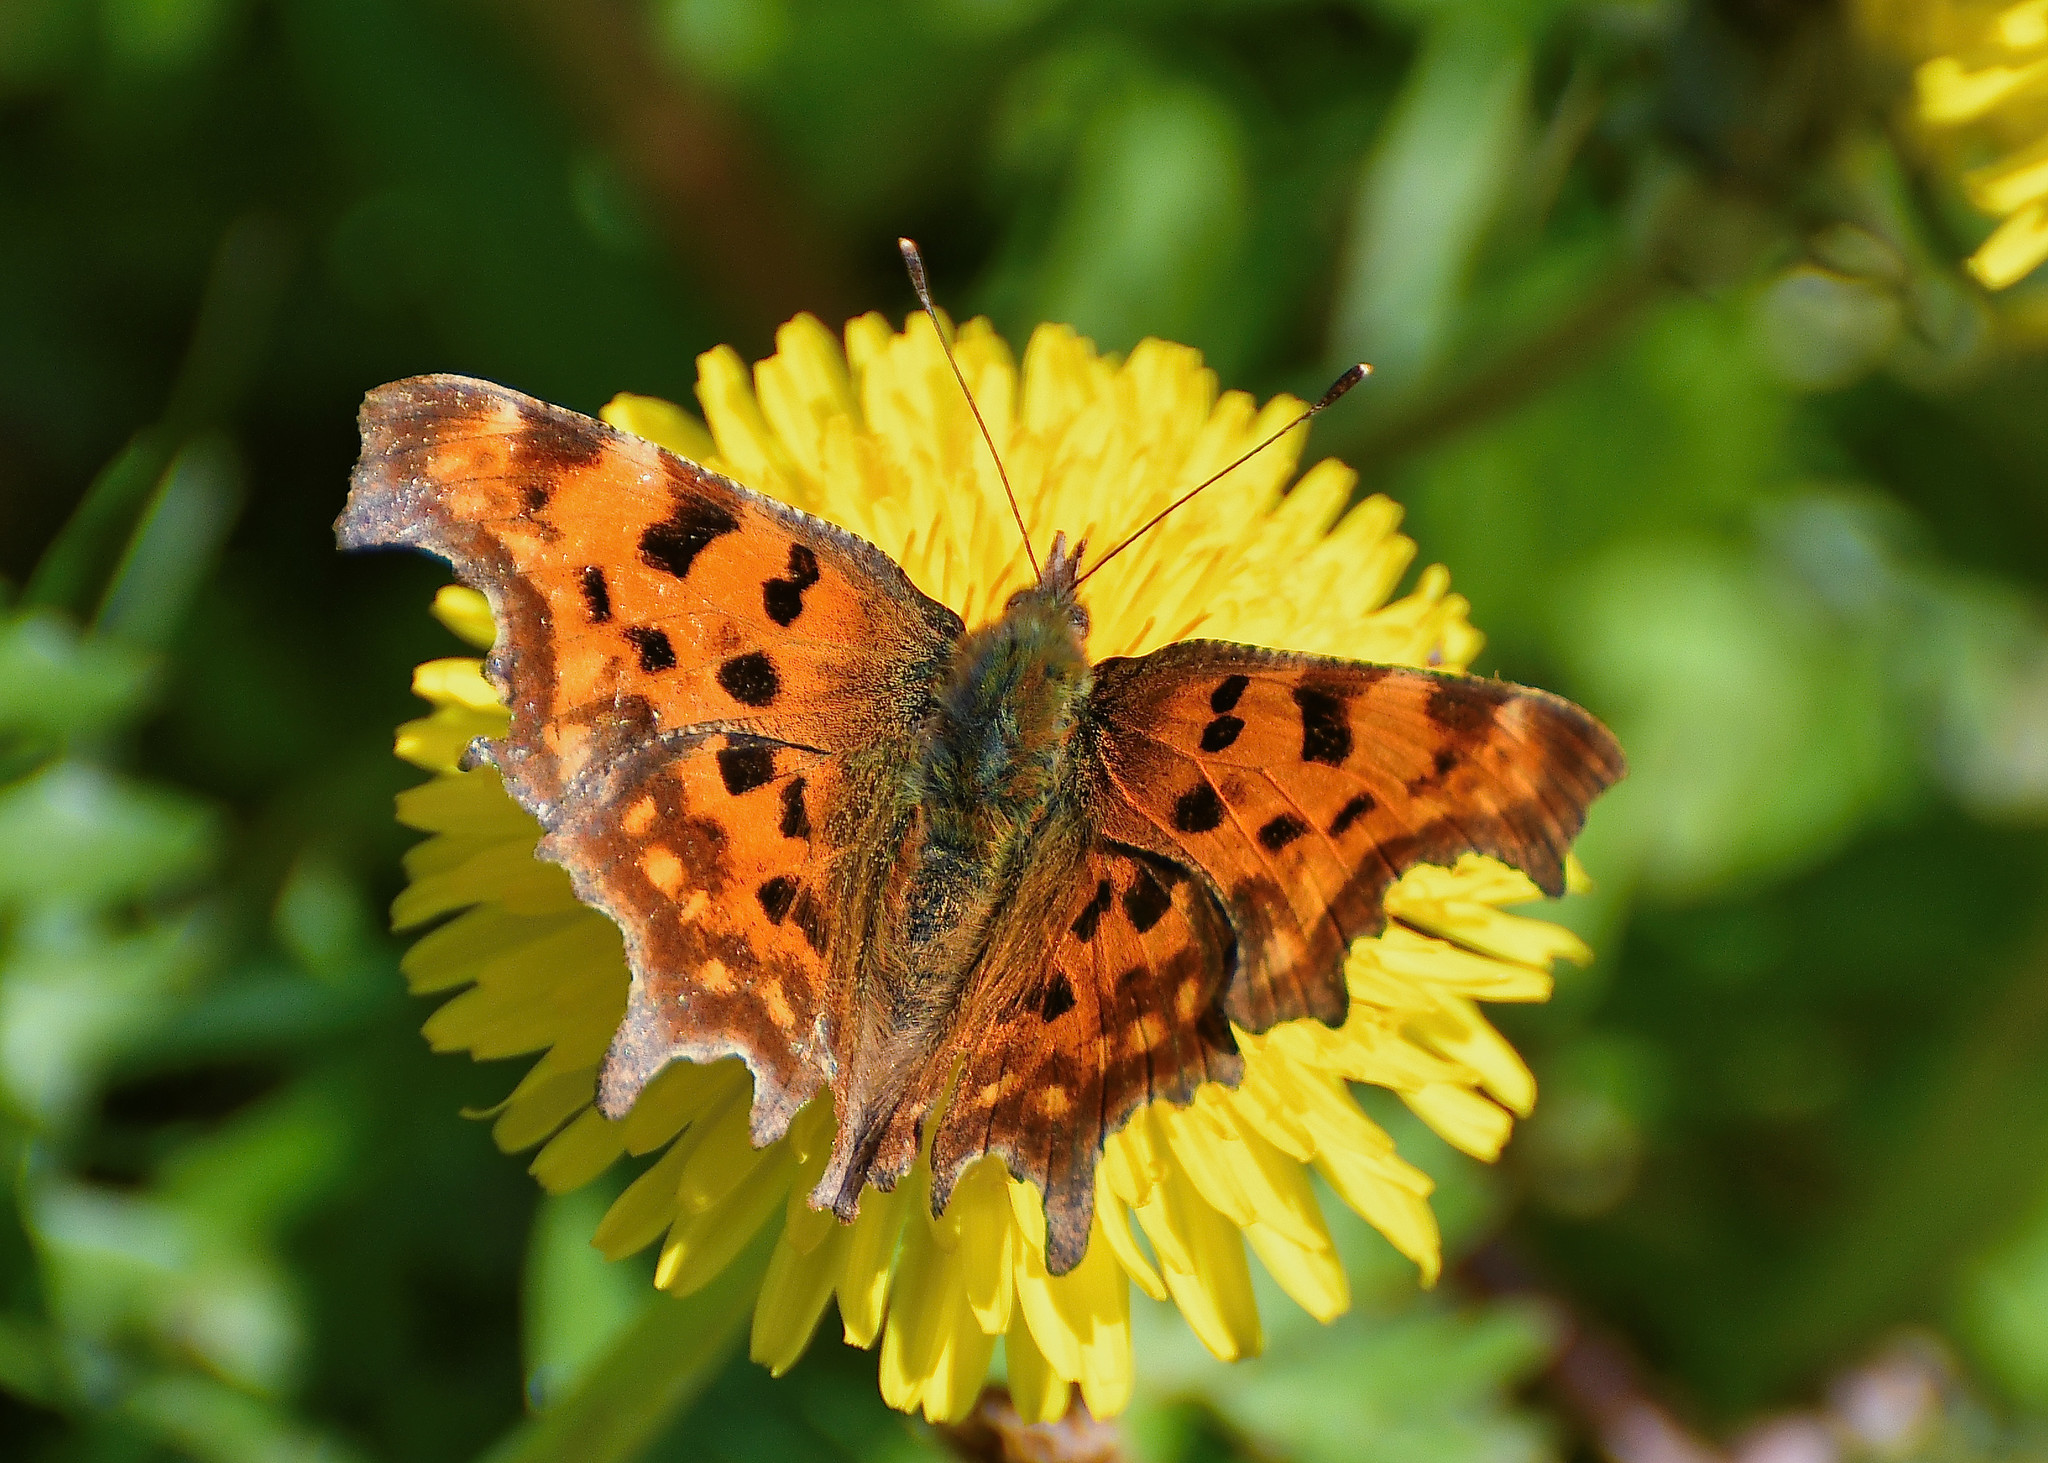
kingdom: Animalia
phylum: Arthropoda
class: Insecta
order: Lepidoptera
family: Nymphalidae
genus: Polygonia
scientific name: Polygonia c-album
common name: Comma
